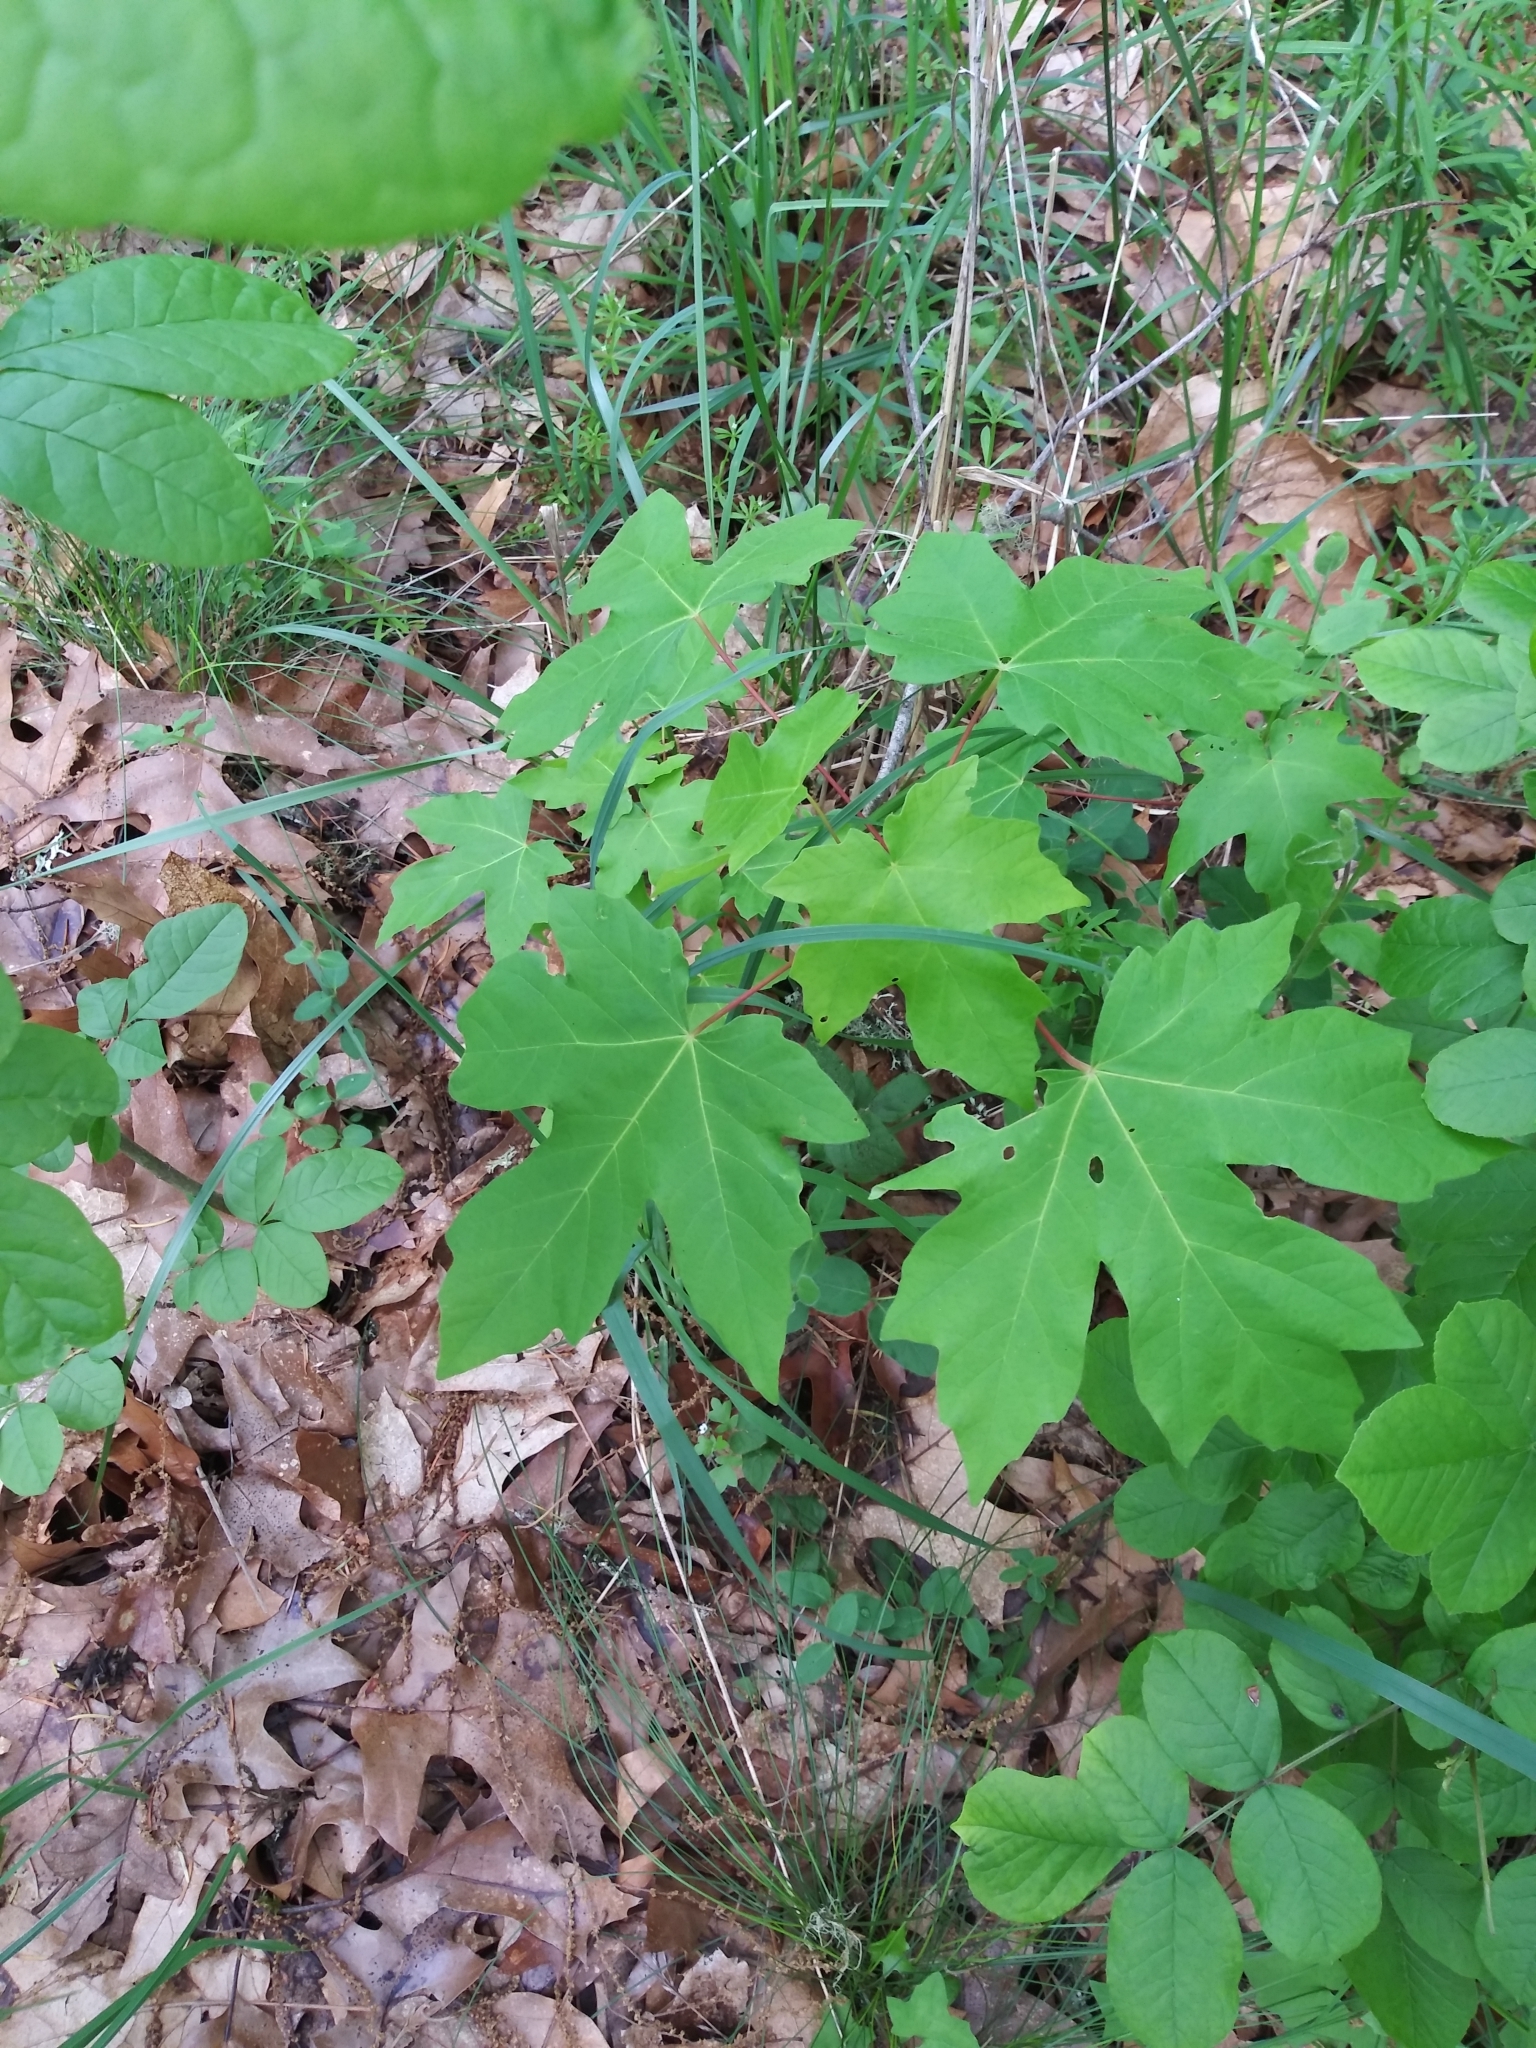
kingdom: Plantae
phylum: Tracheophyta
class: Magnoliopsida
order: Sapindales
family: Sapindaceae
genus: Acer
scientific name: Acer macrophyllum
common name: Oregon maple
